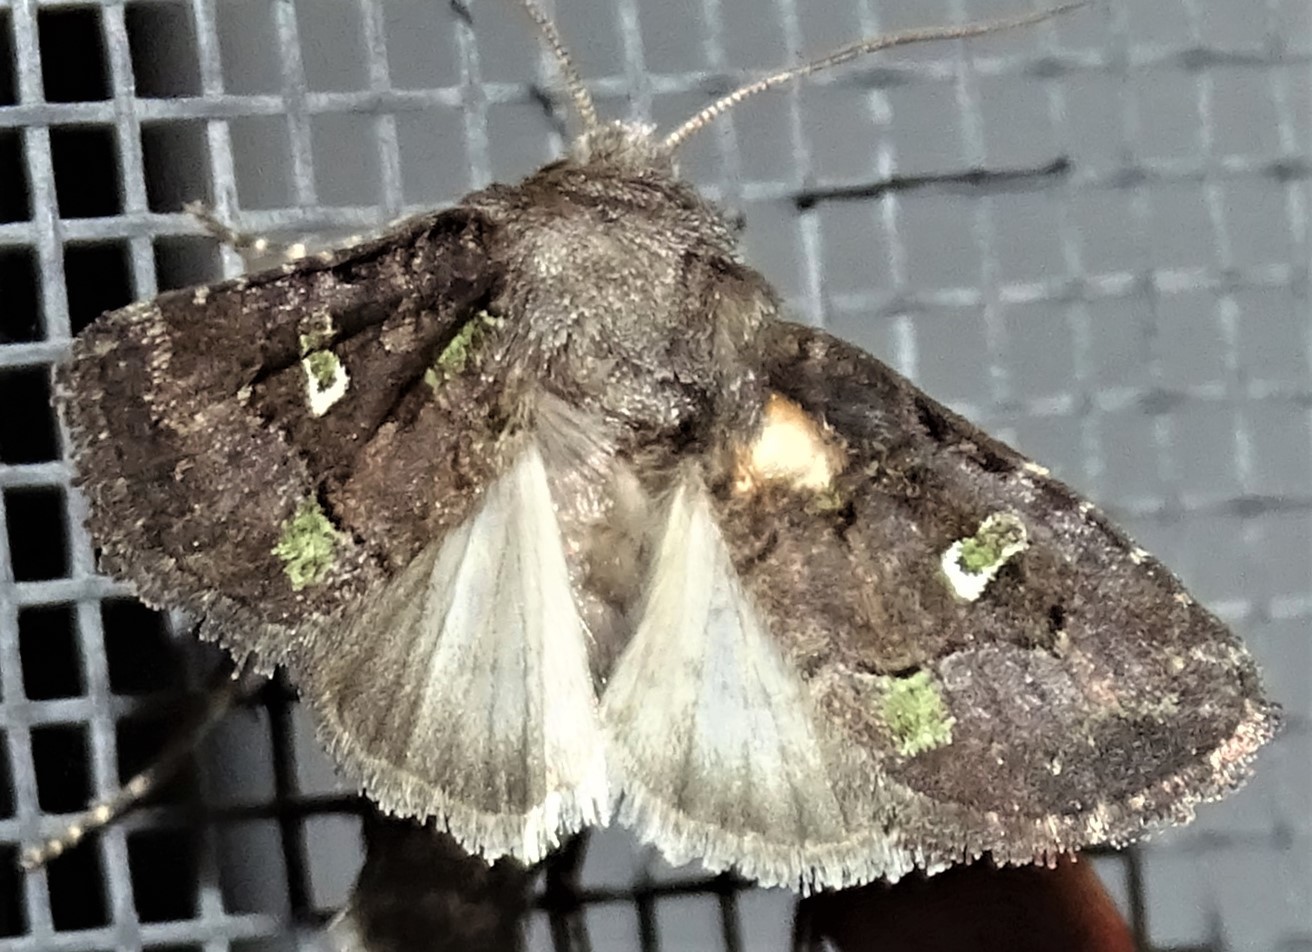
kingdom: Animalia
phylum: Arthropoda
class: Insecta
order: Lepidoptera
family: Noctuidae
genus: Lacinipolia
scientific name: Lacinipolia renigera
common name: Kidney-spotted minor
